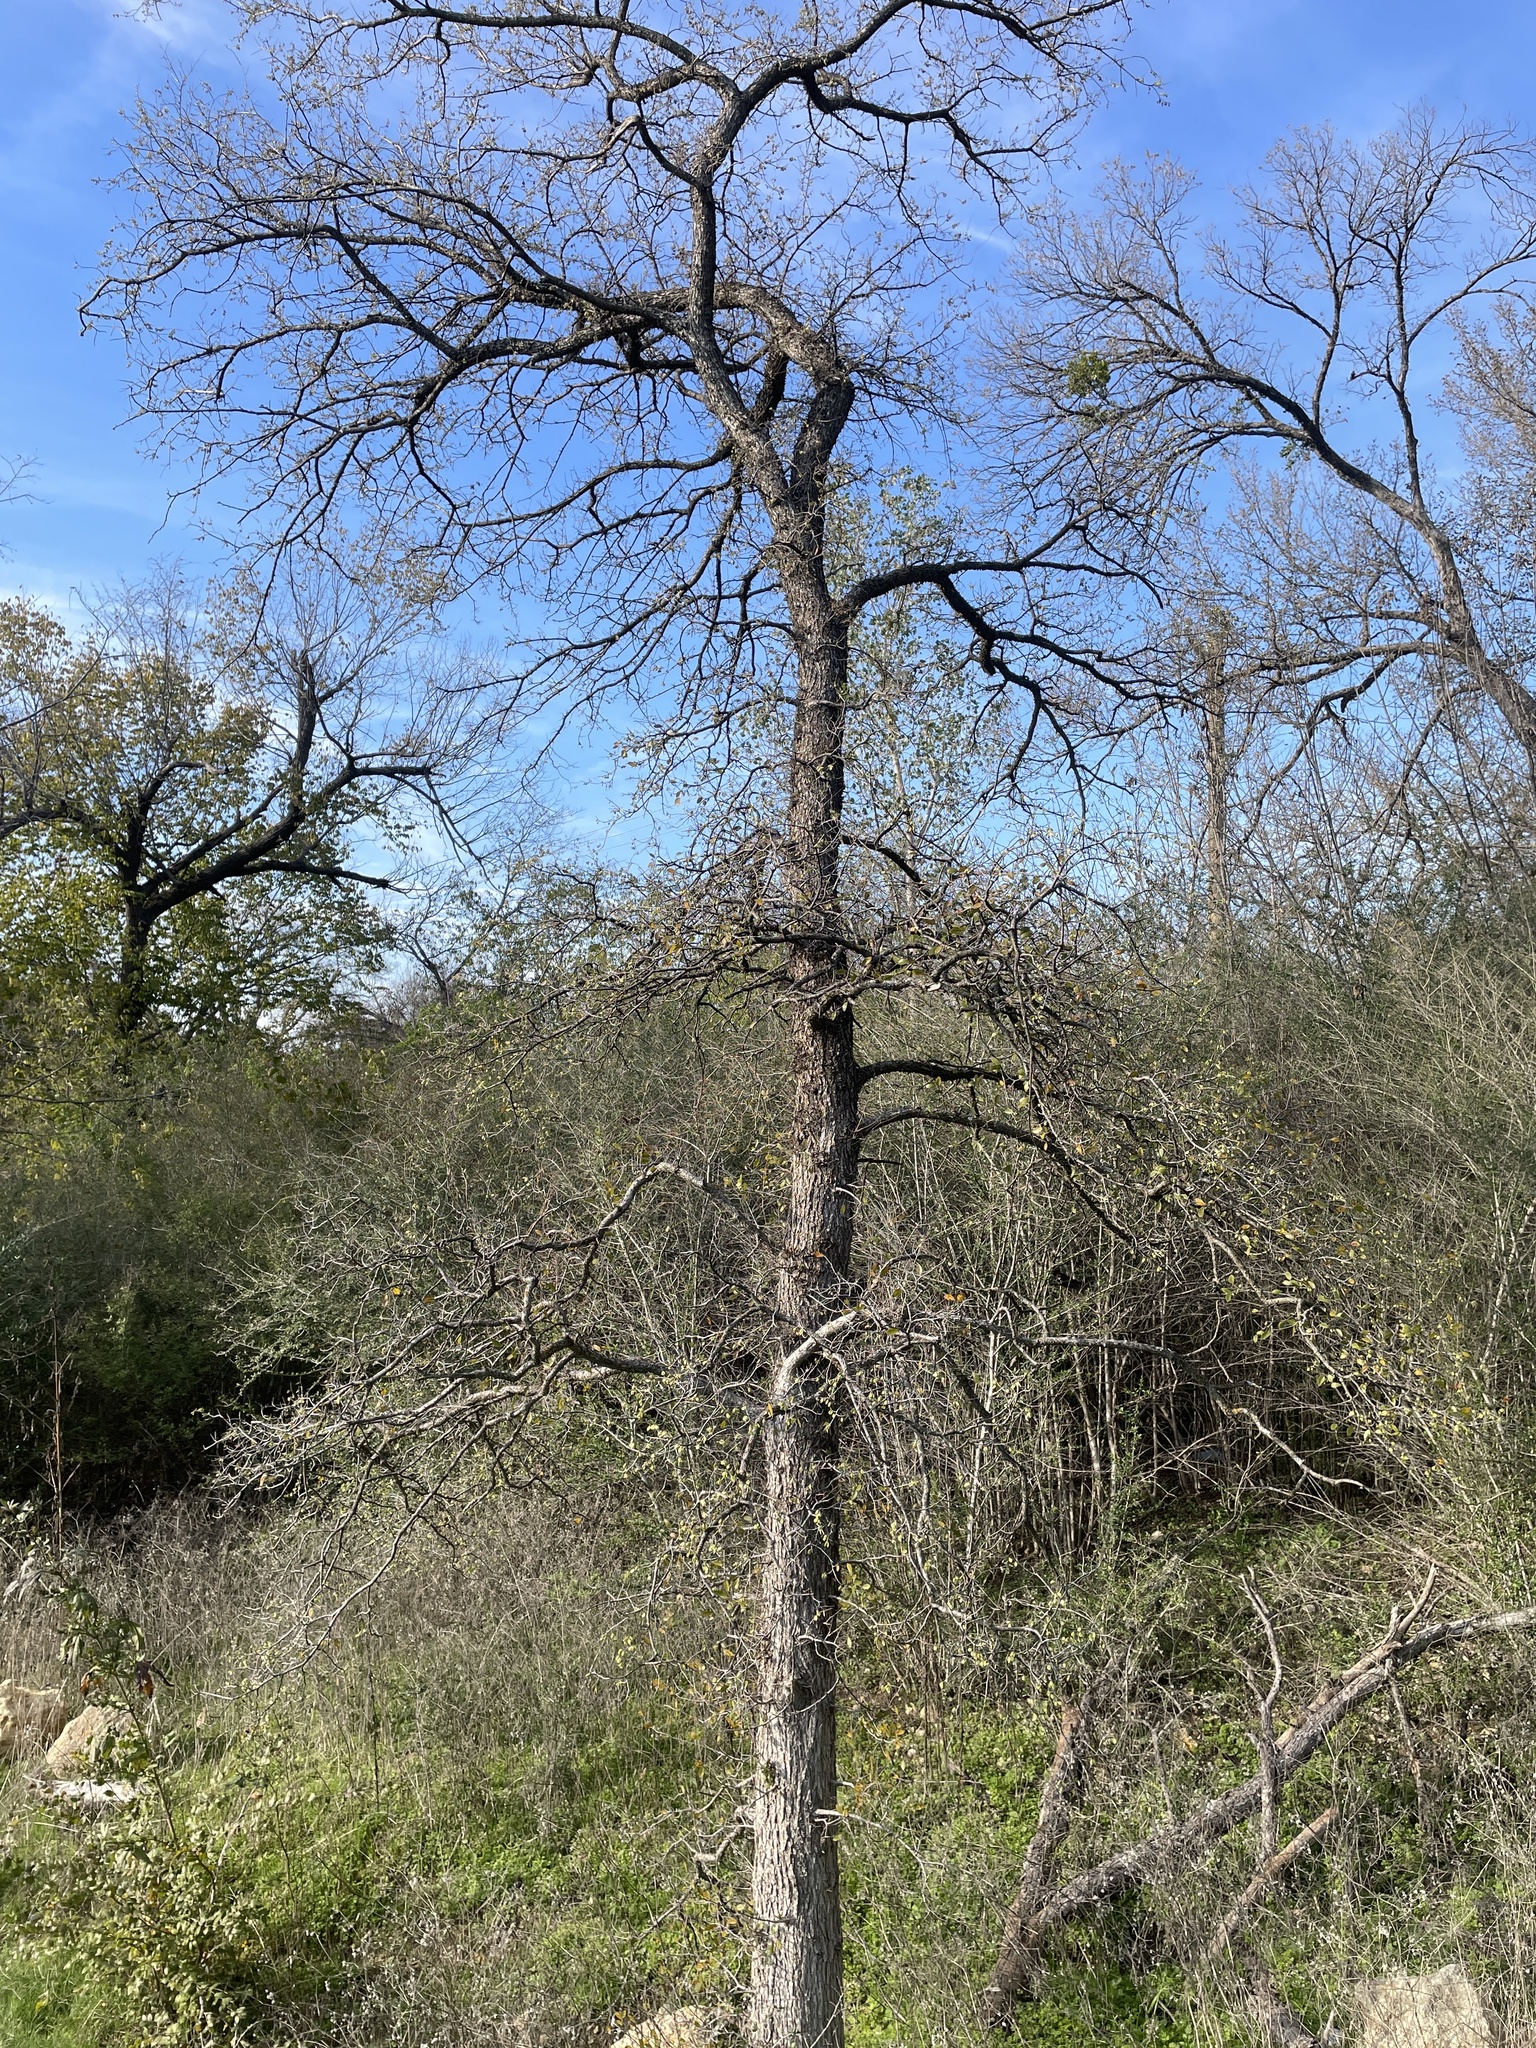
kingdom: Plantae
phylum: Tracheophyta
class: Magnoliopsida
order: Rosales
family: Ulmaceae
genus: Ulmus
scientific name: Ulmus crassifolia
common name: Basket elm
